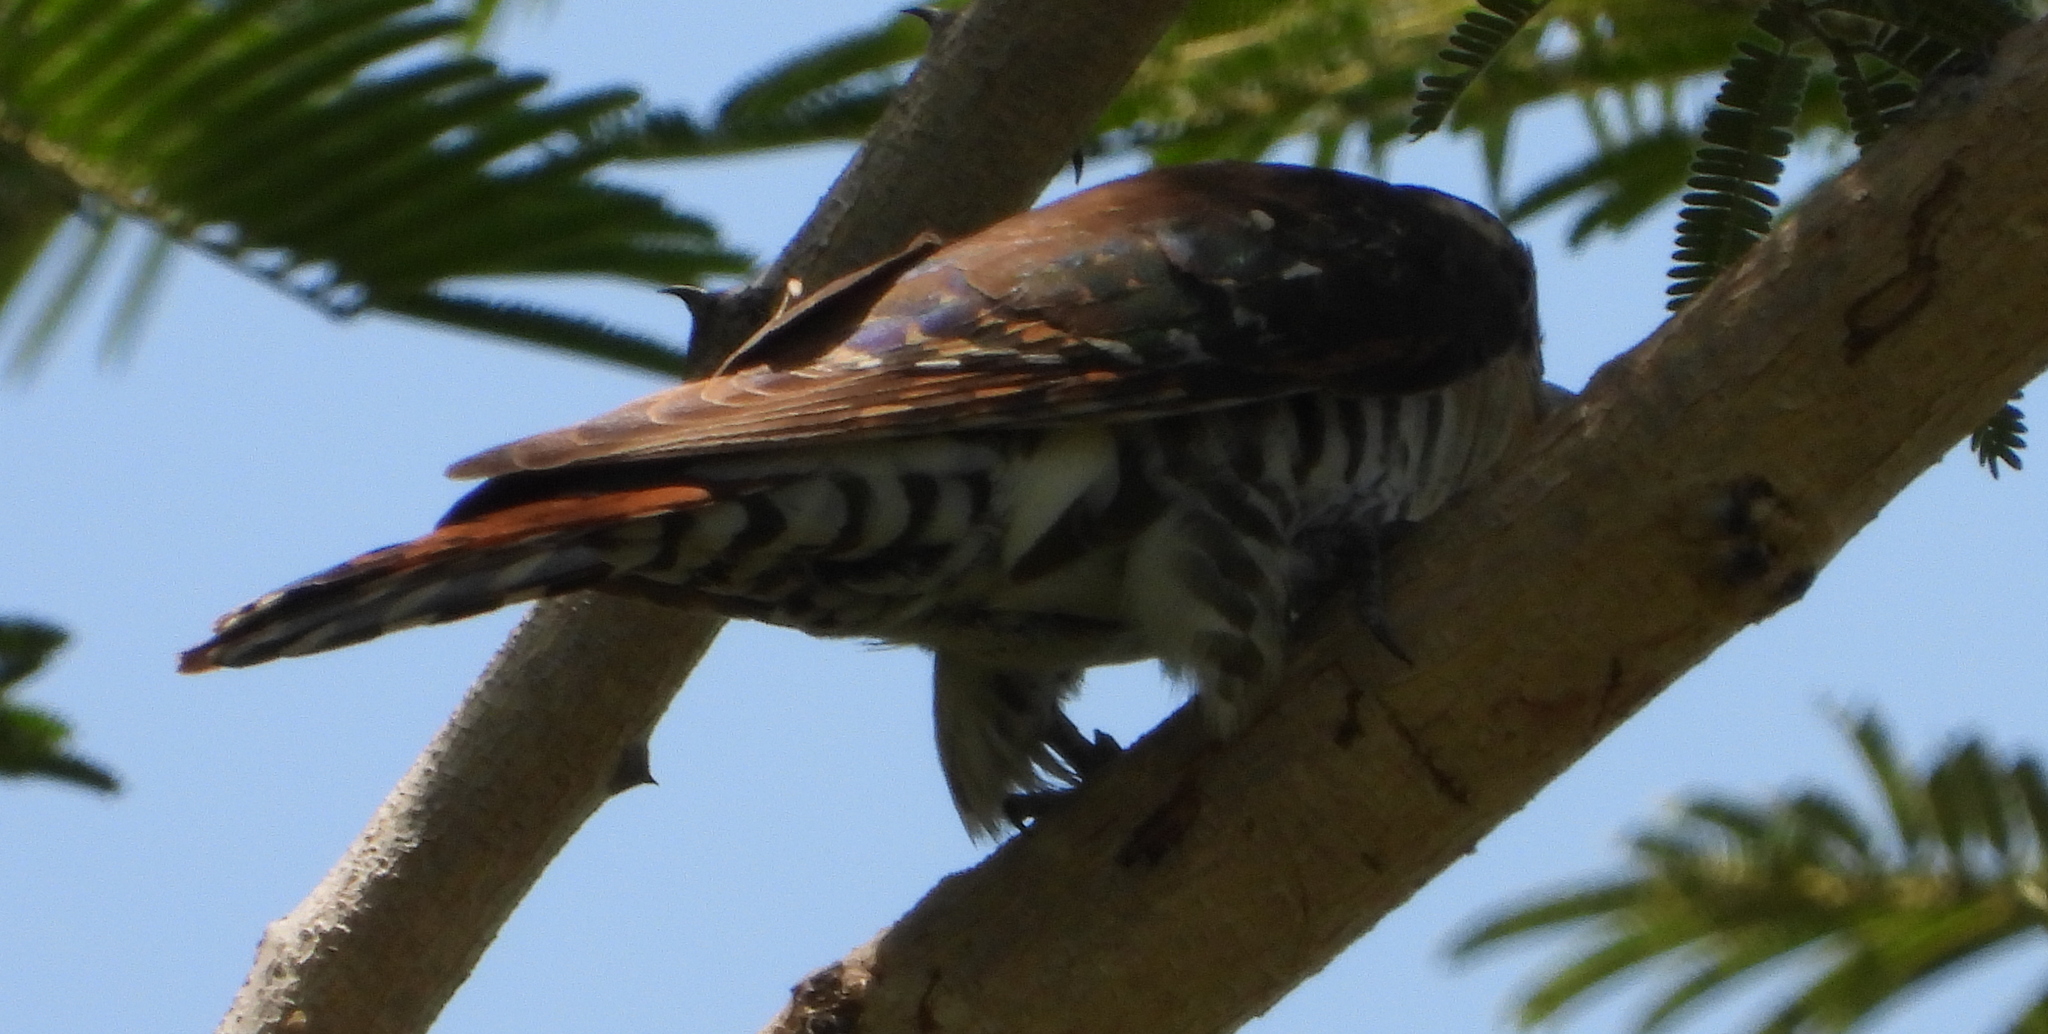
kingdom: Animalia
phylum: Chordata
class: Aves
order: Cuculiformes
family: Cuculidae
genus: Chrysococcyx
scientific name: Chrysococcyx caprius
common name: Diederik cuckoo
